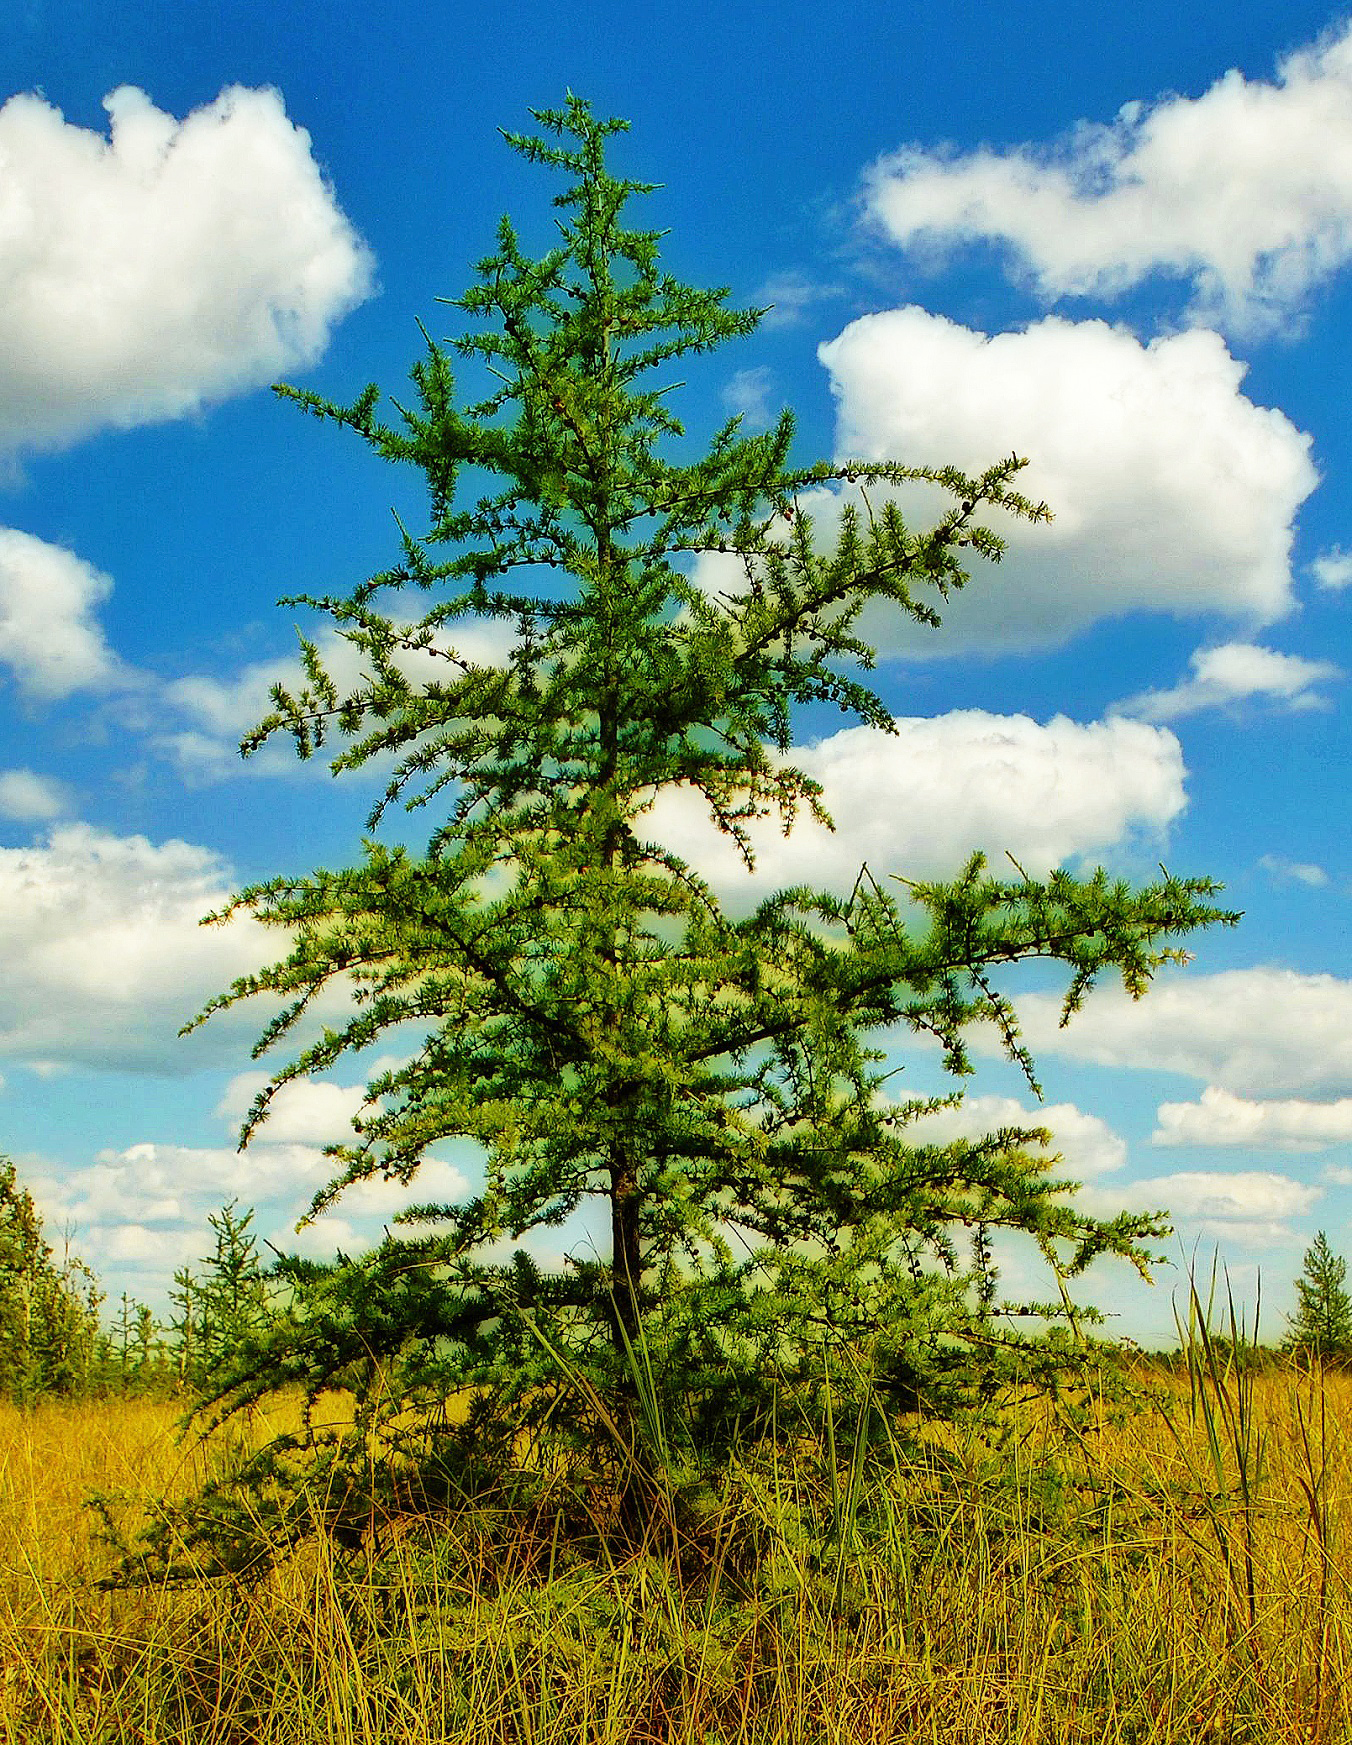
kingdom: Plantae
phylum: Tracheophyta
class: Pinopsida
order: Pinales
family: Pinaceae
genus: Larix
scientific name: Larix laricina
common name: American larch
